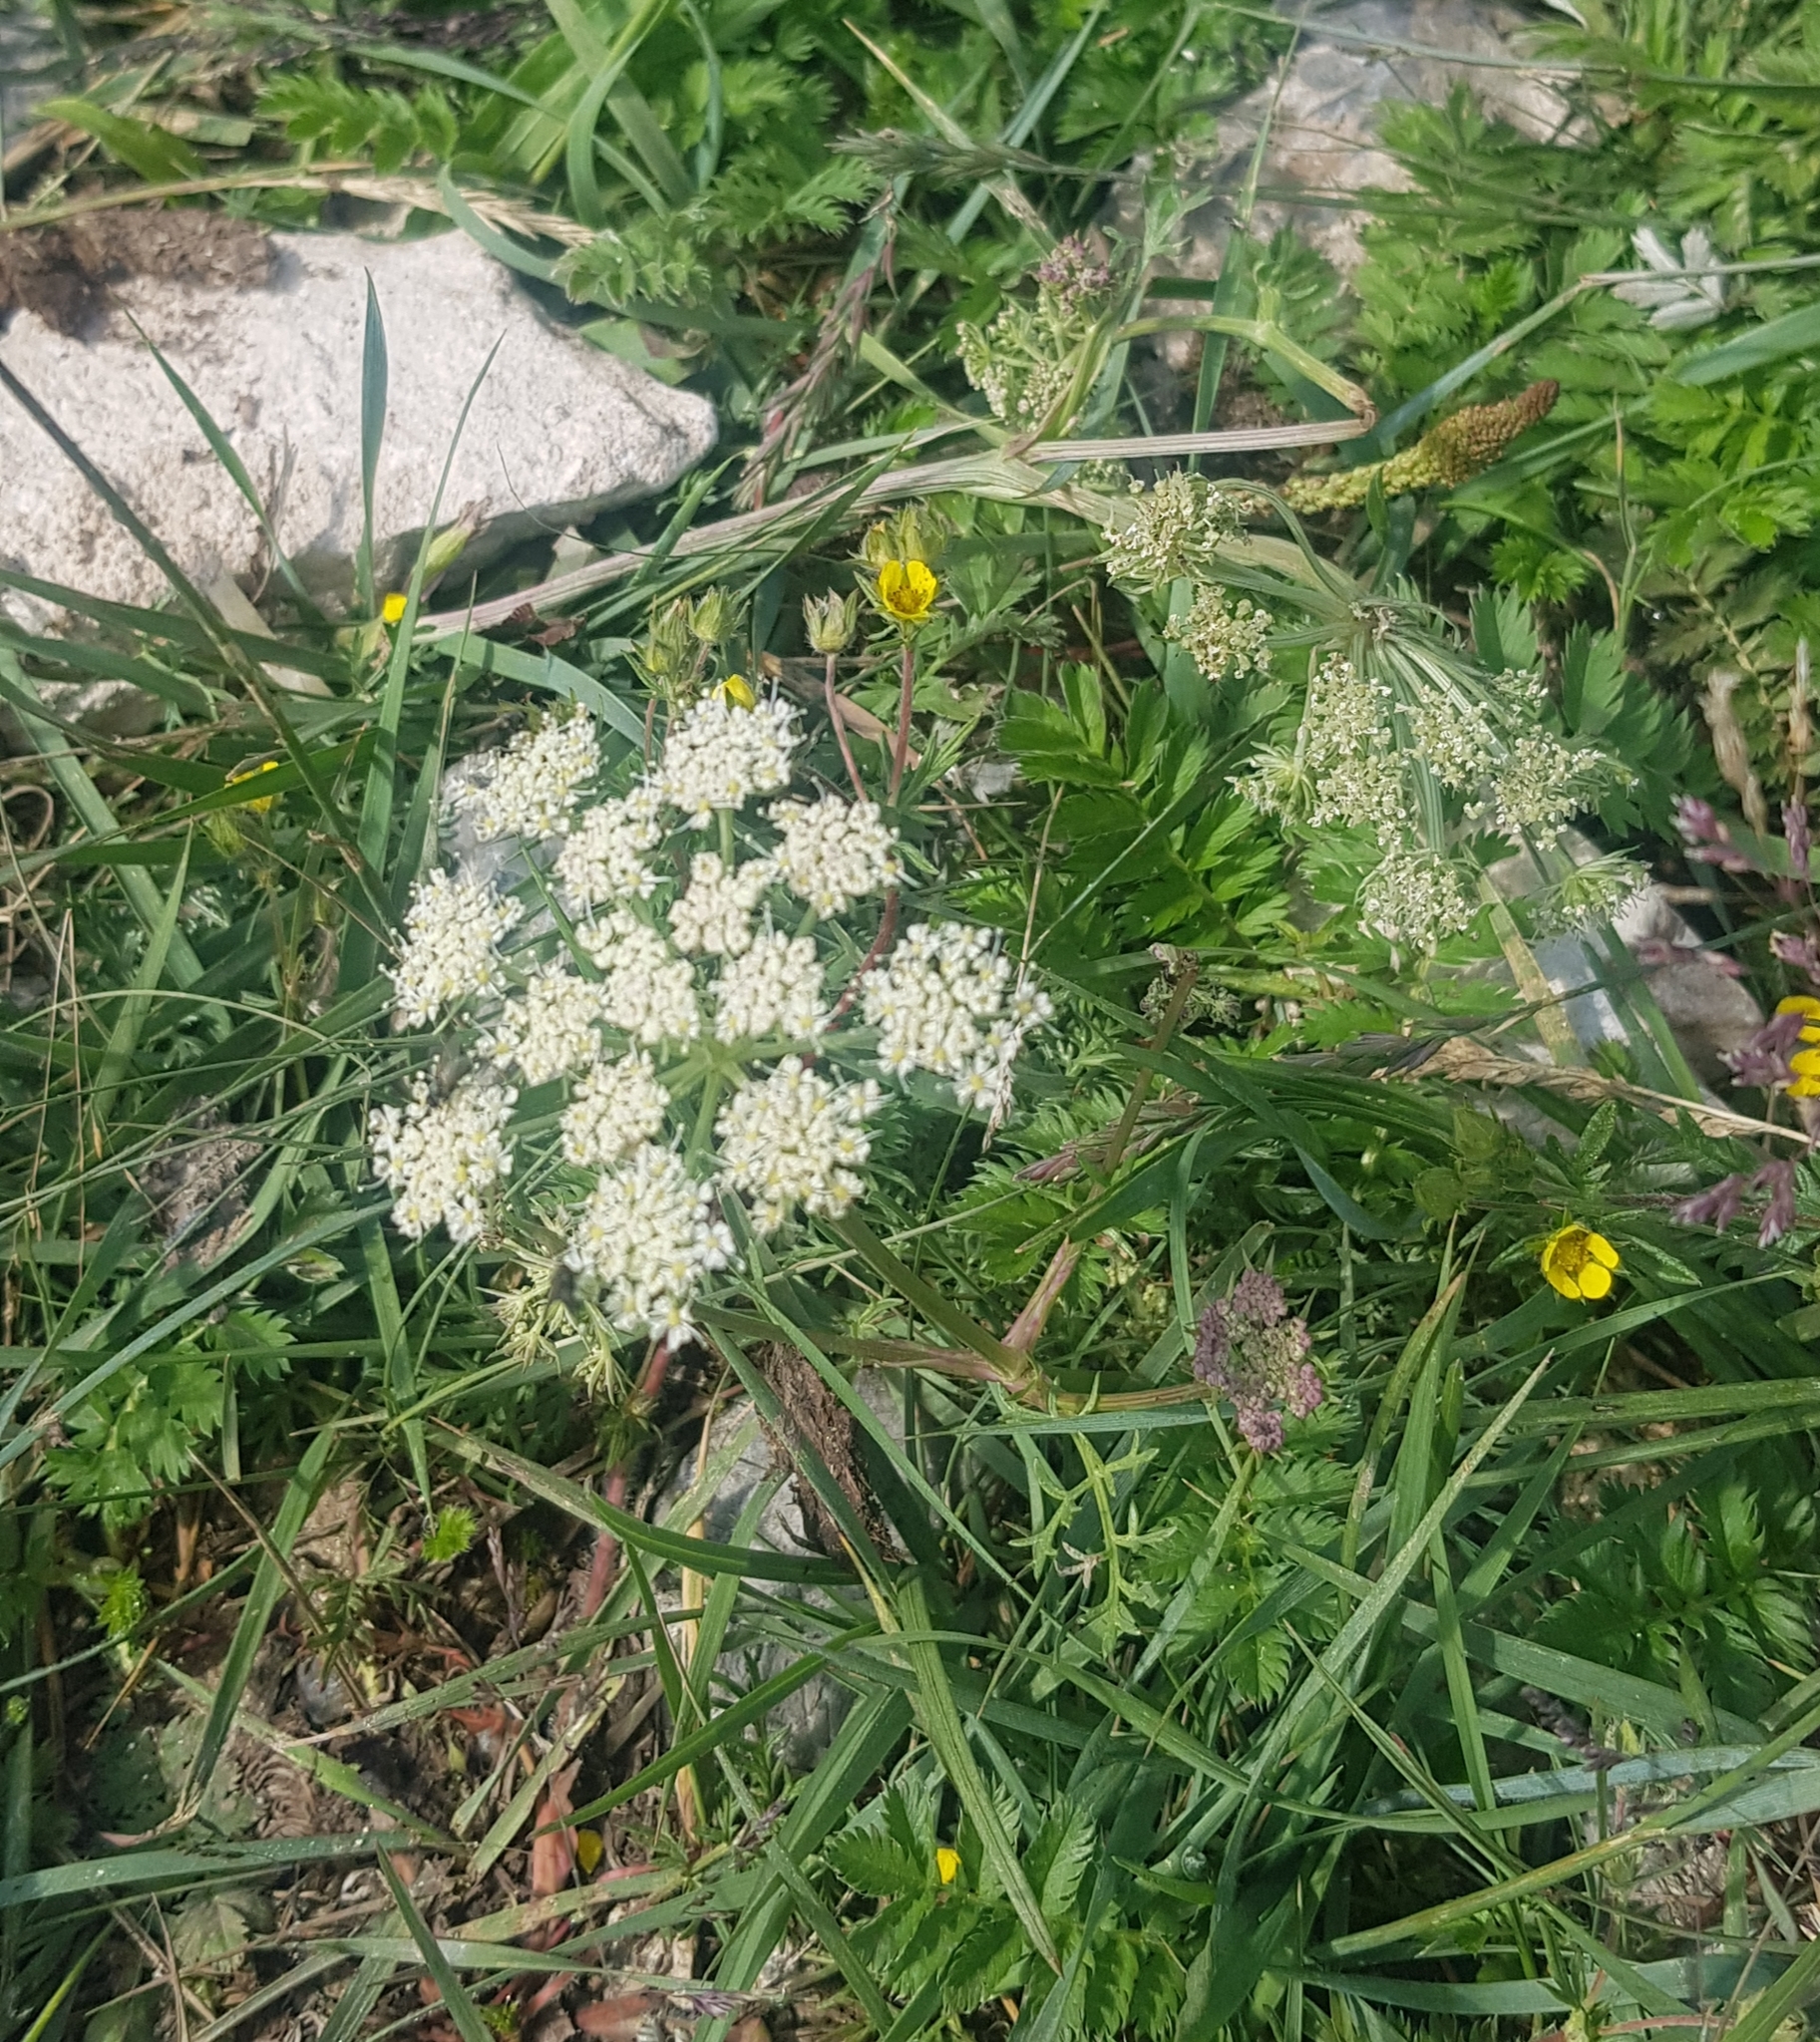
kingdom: Plantae
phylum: Tracheophyta
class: Magnoliopsida
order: Apiales
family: Apiaceae
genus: Seseli
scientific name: Seseli condensatum
